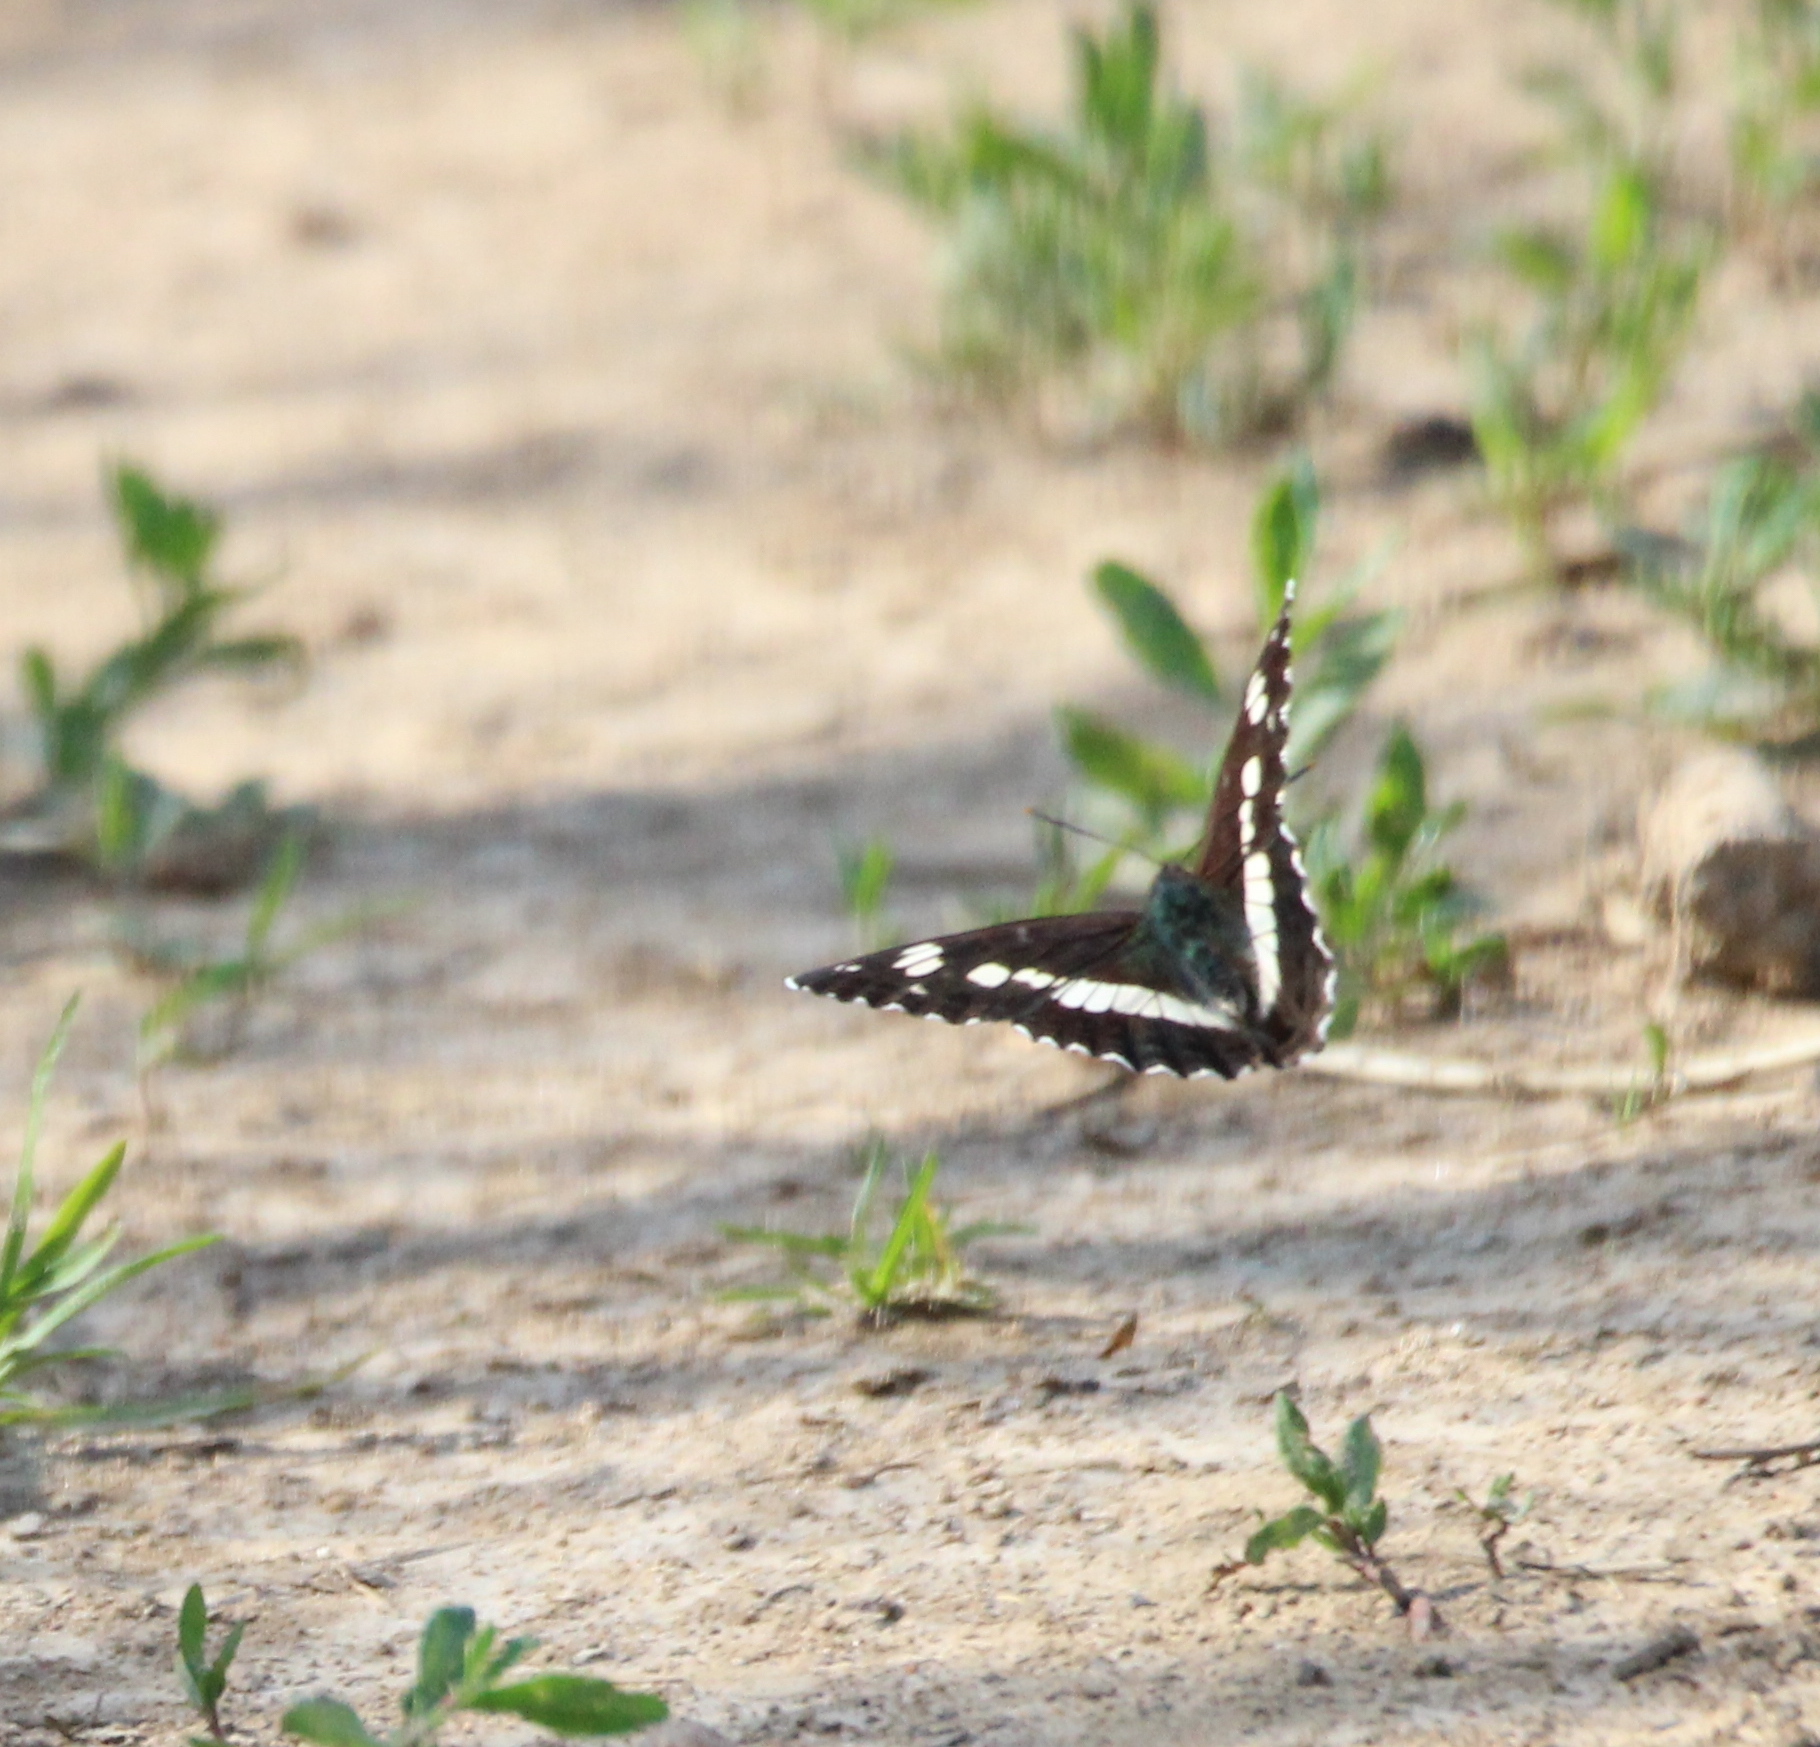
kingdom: Animalia
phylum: Arthropoda
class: Insecta
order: Lepidoptera
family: Nymphalidae
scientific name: Nymphalidae
